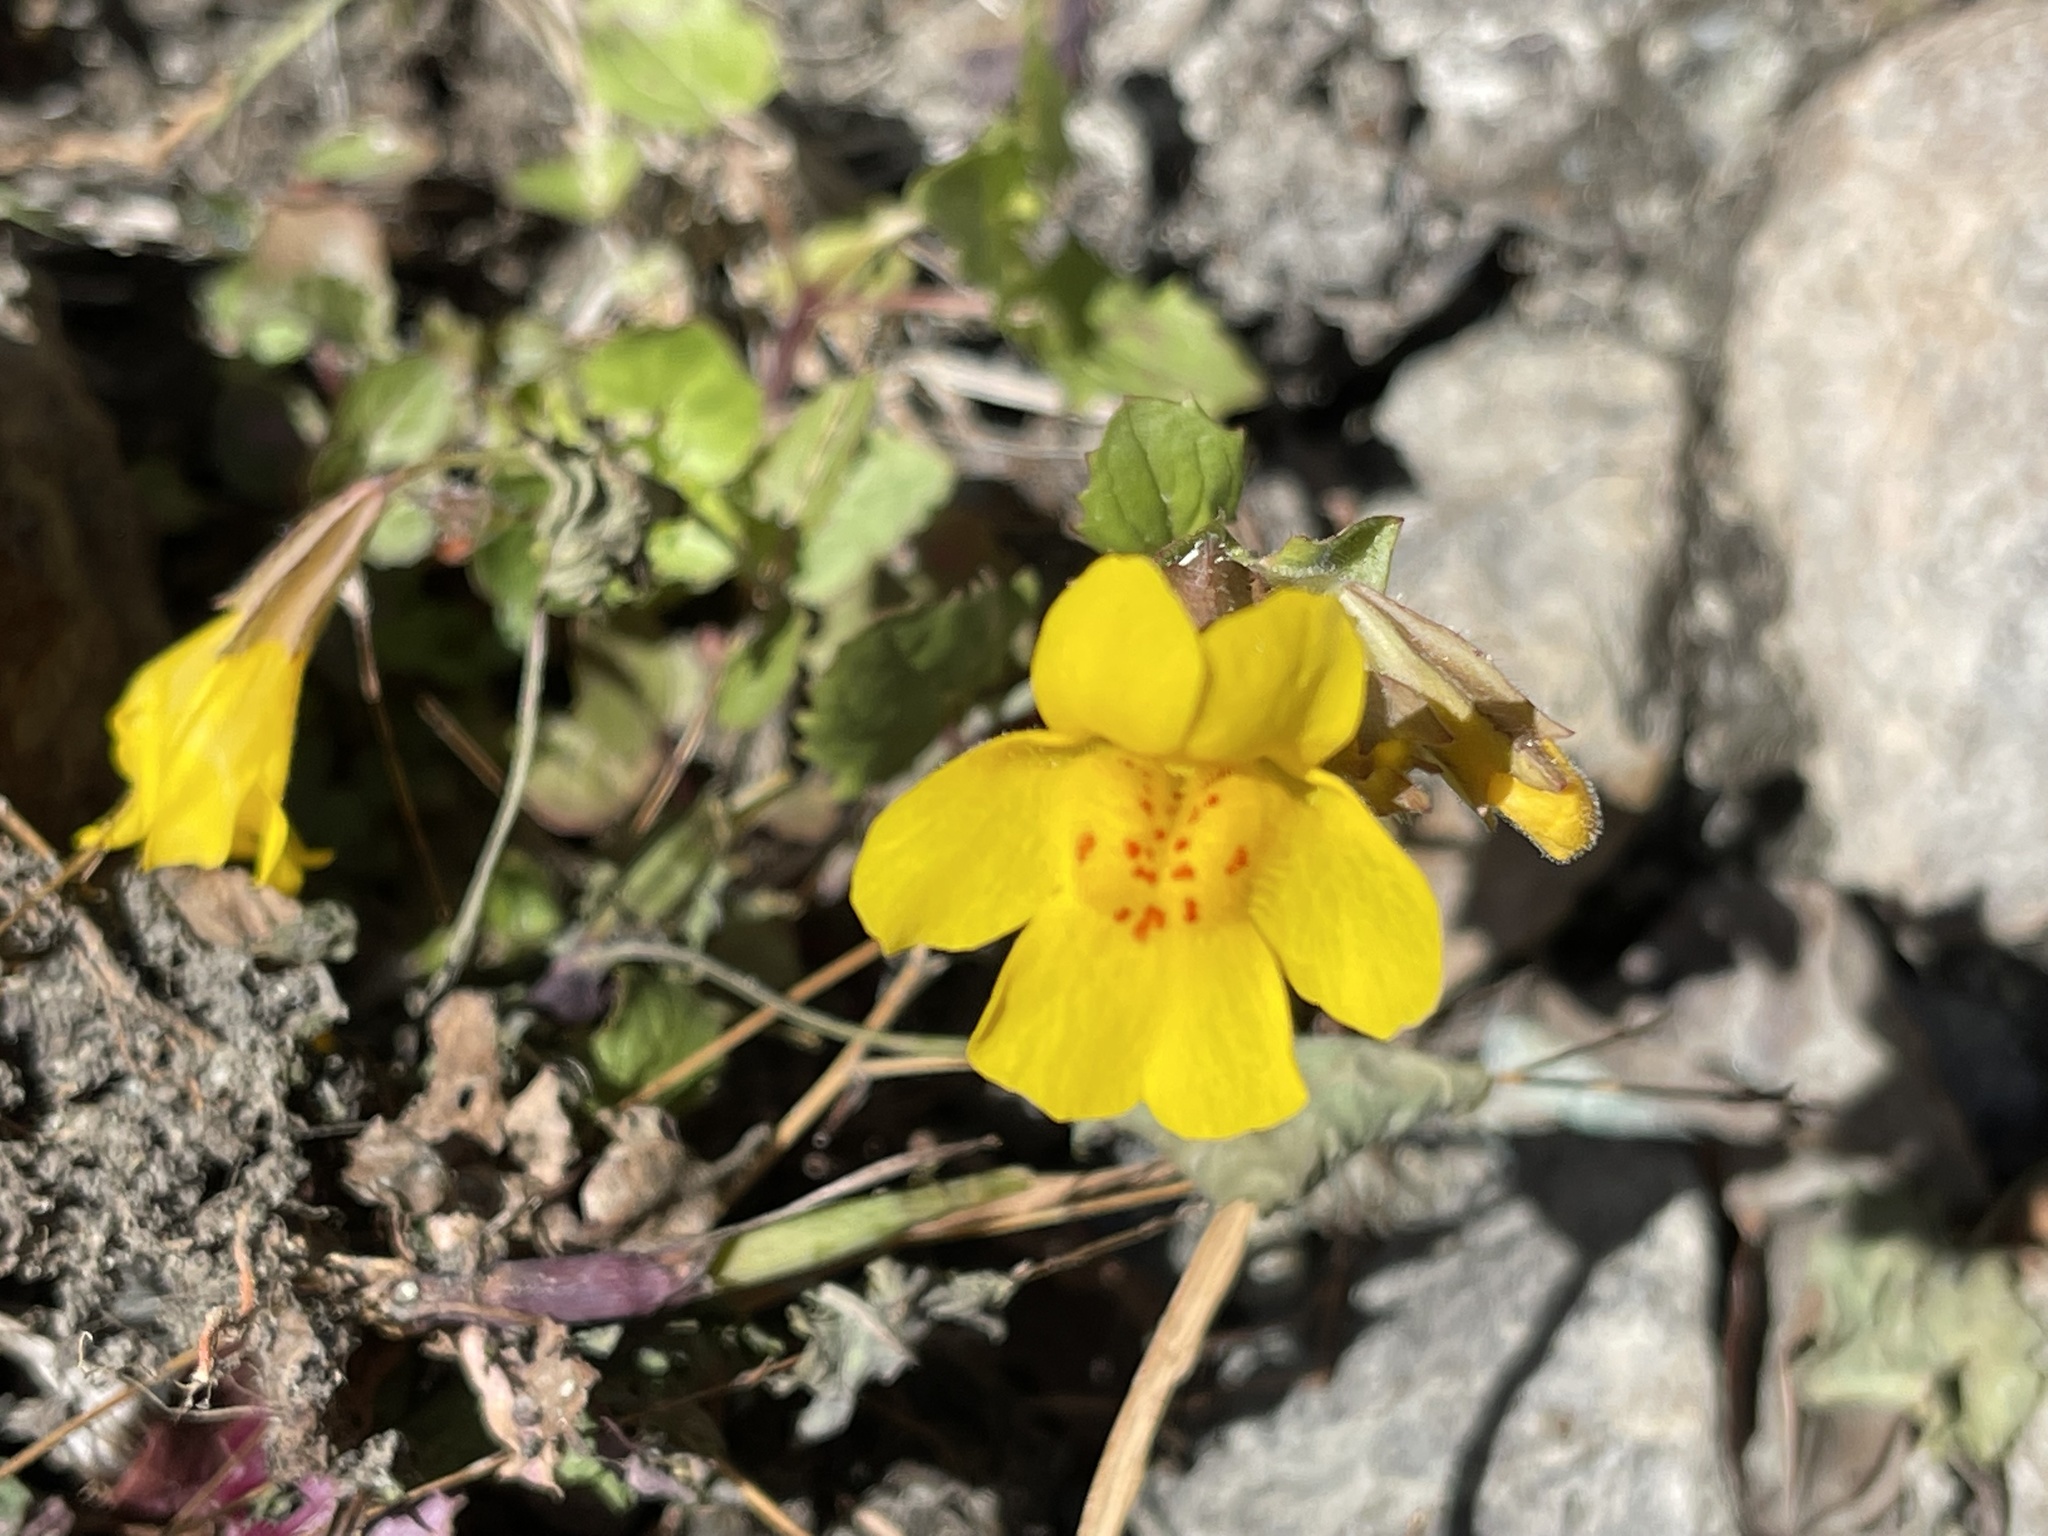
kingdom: Plantae
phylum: Tracheophyta
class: Magnoliopsida
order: Lamiales
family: Phrymaceae
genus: Erythranthe
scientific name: Erythranthe guttata
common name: Monkeyflower
